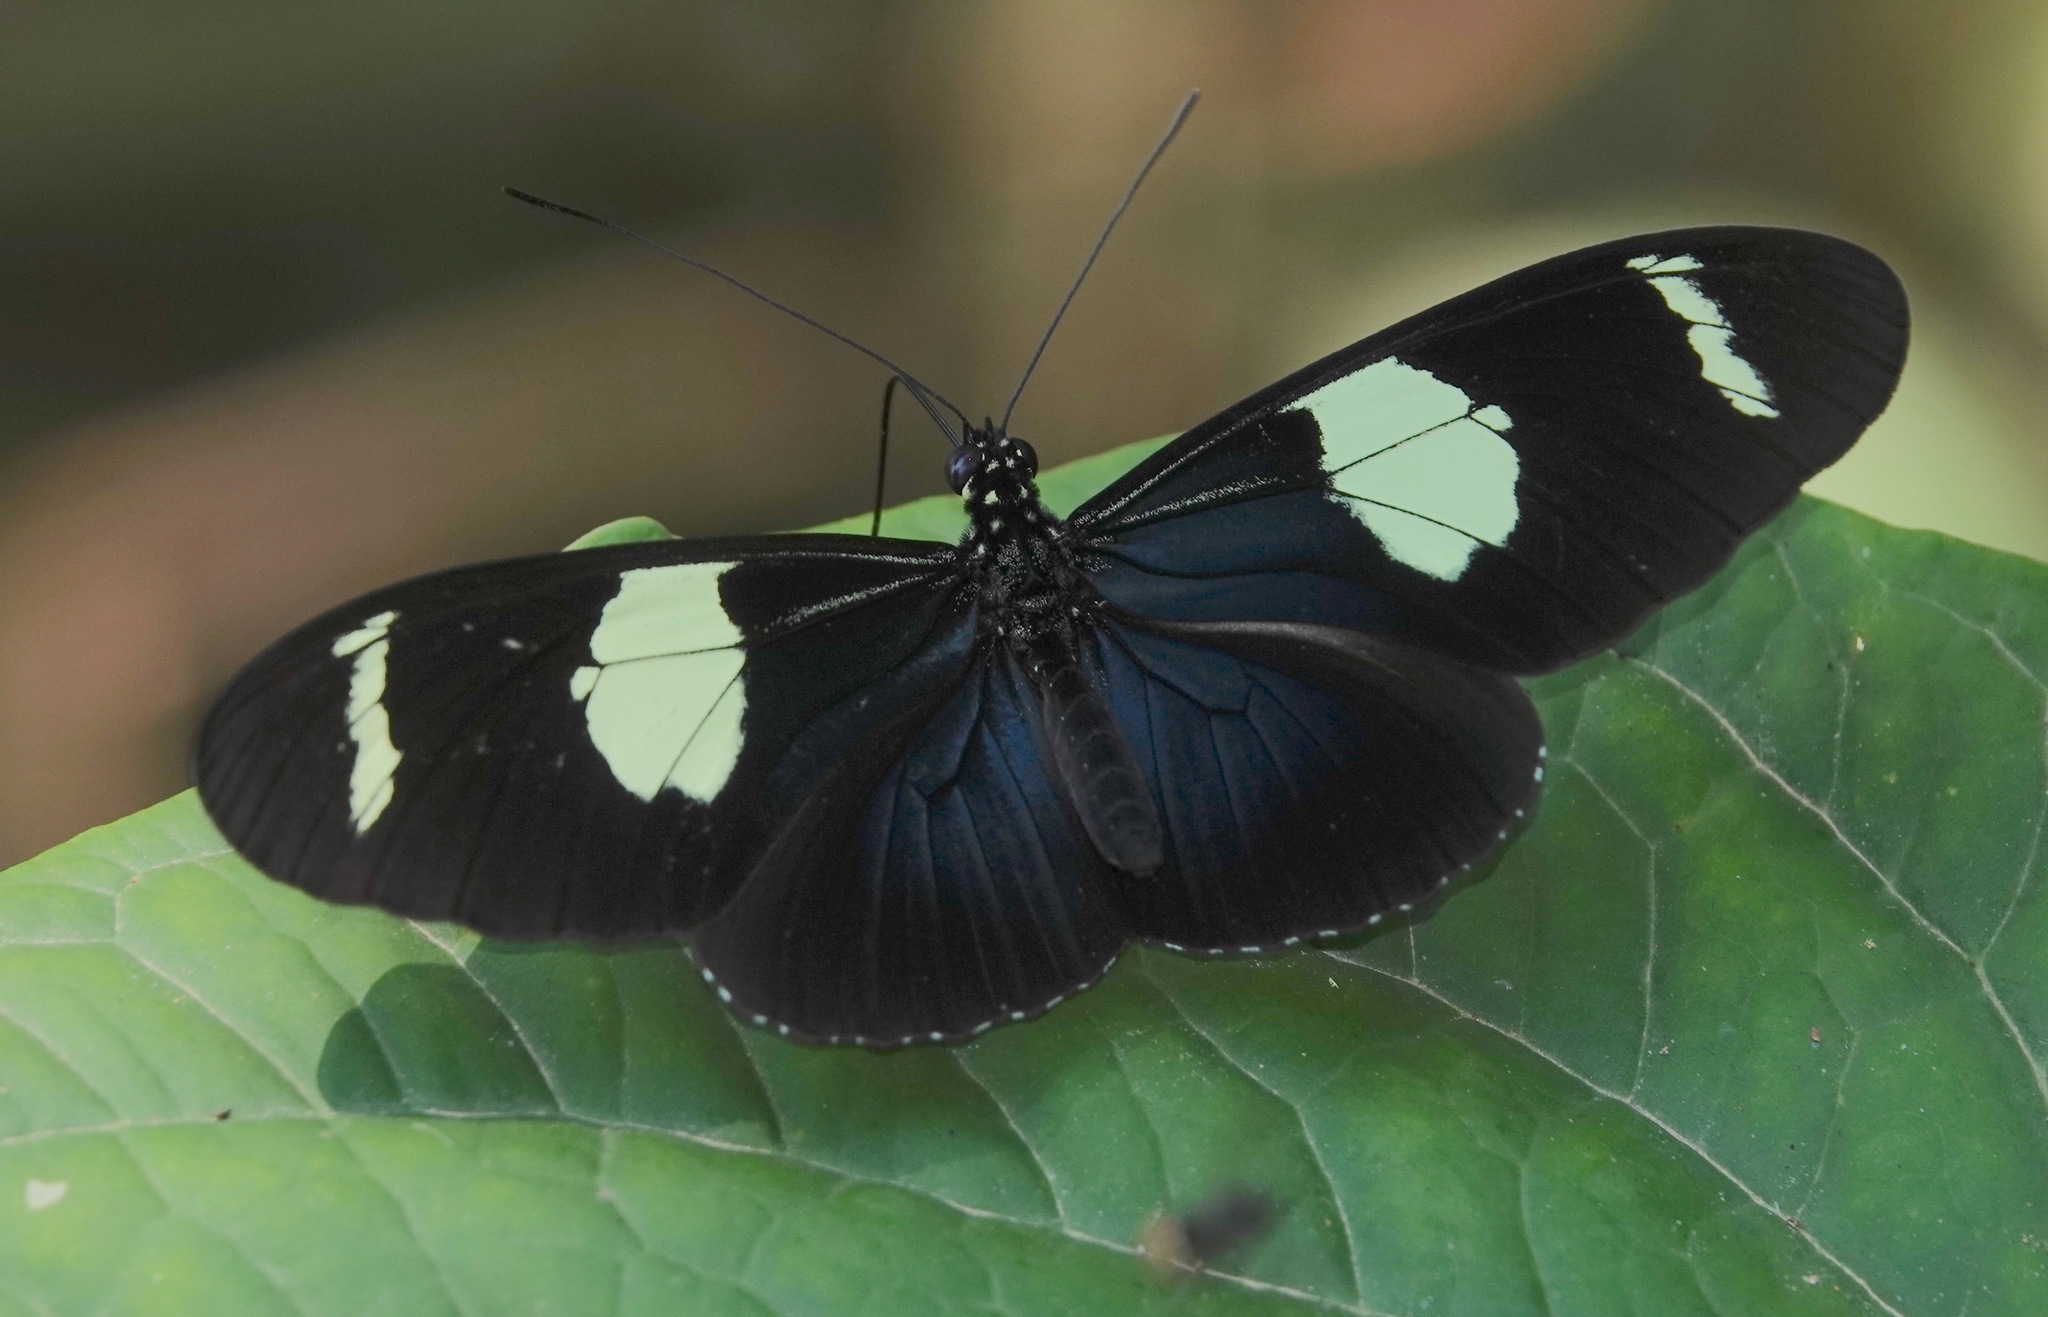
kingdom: Animalia
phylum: Arthropoda
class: Insecta
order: Lepidoptera
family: Nymphalidae
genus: Heliconius
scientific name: Heliconius wallacei
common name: Wallace's longwing
